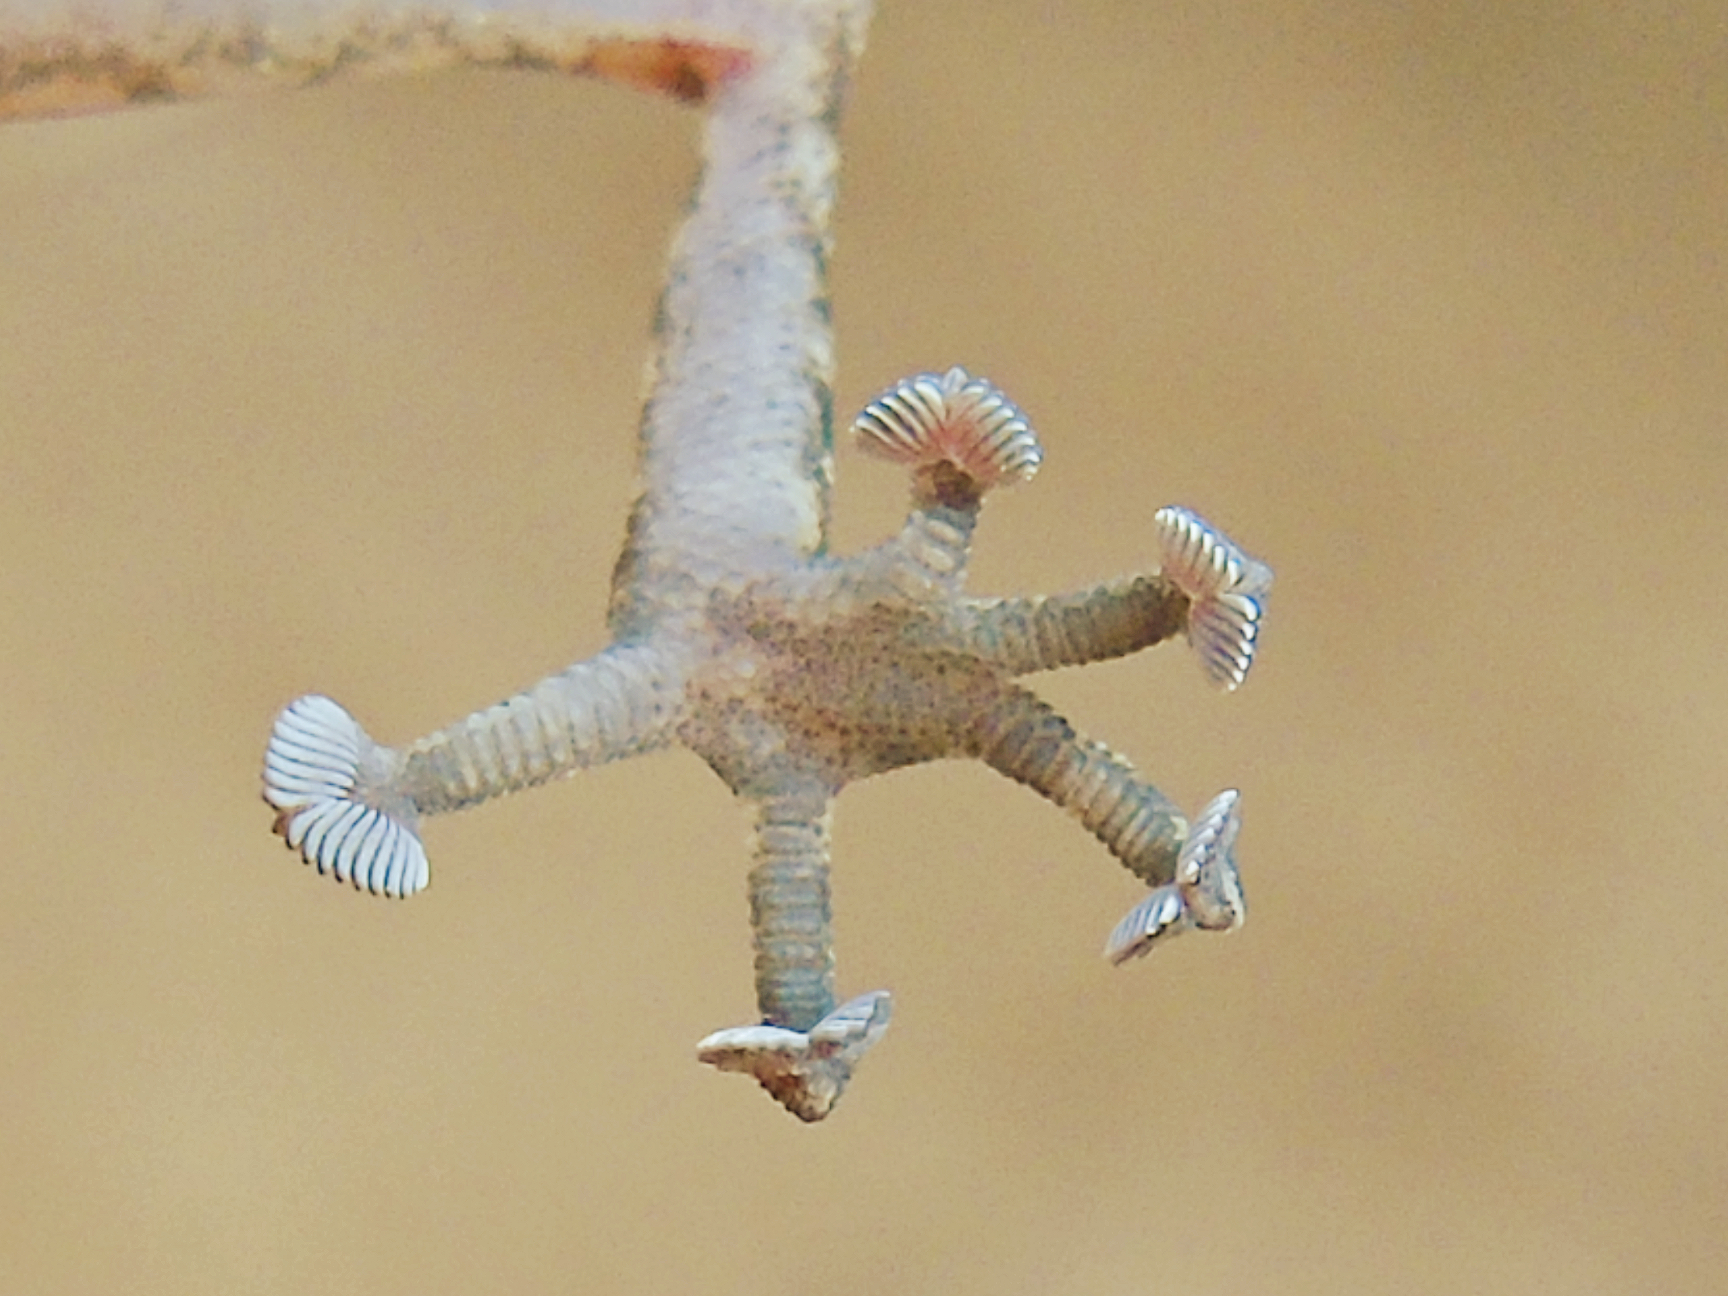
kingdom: Animalia
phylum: Chordata
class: Squamata
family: Phyllodactylidae
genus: Ptyodactylus
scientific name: Ptyodactylus hasselquistii
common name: Hasselquist’s fan-footed gecko
